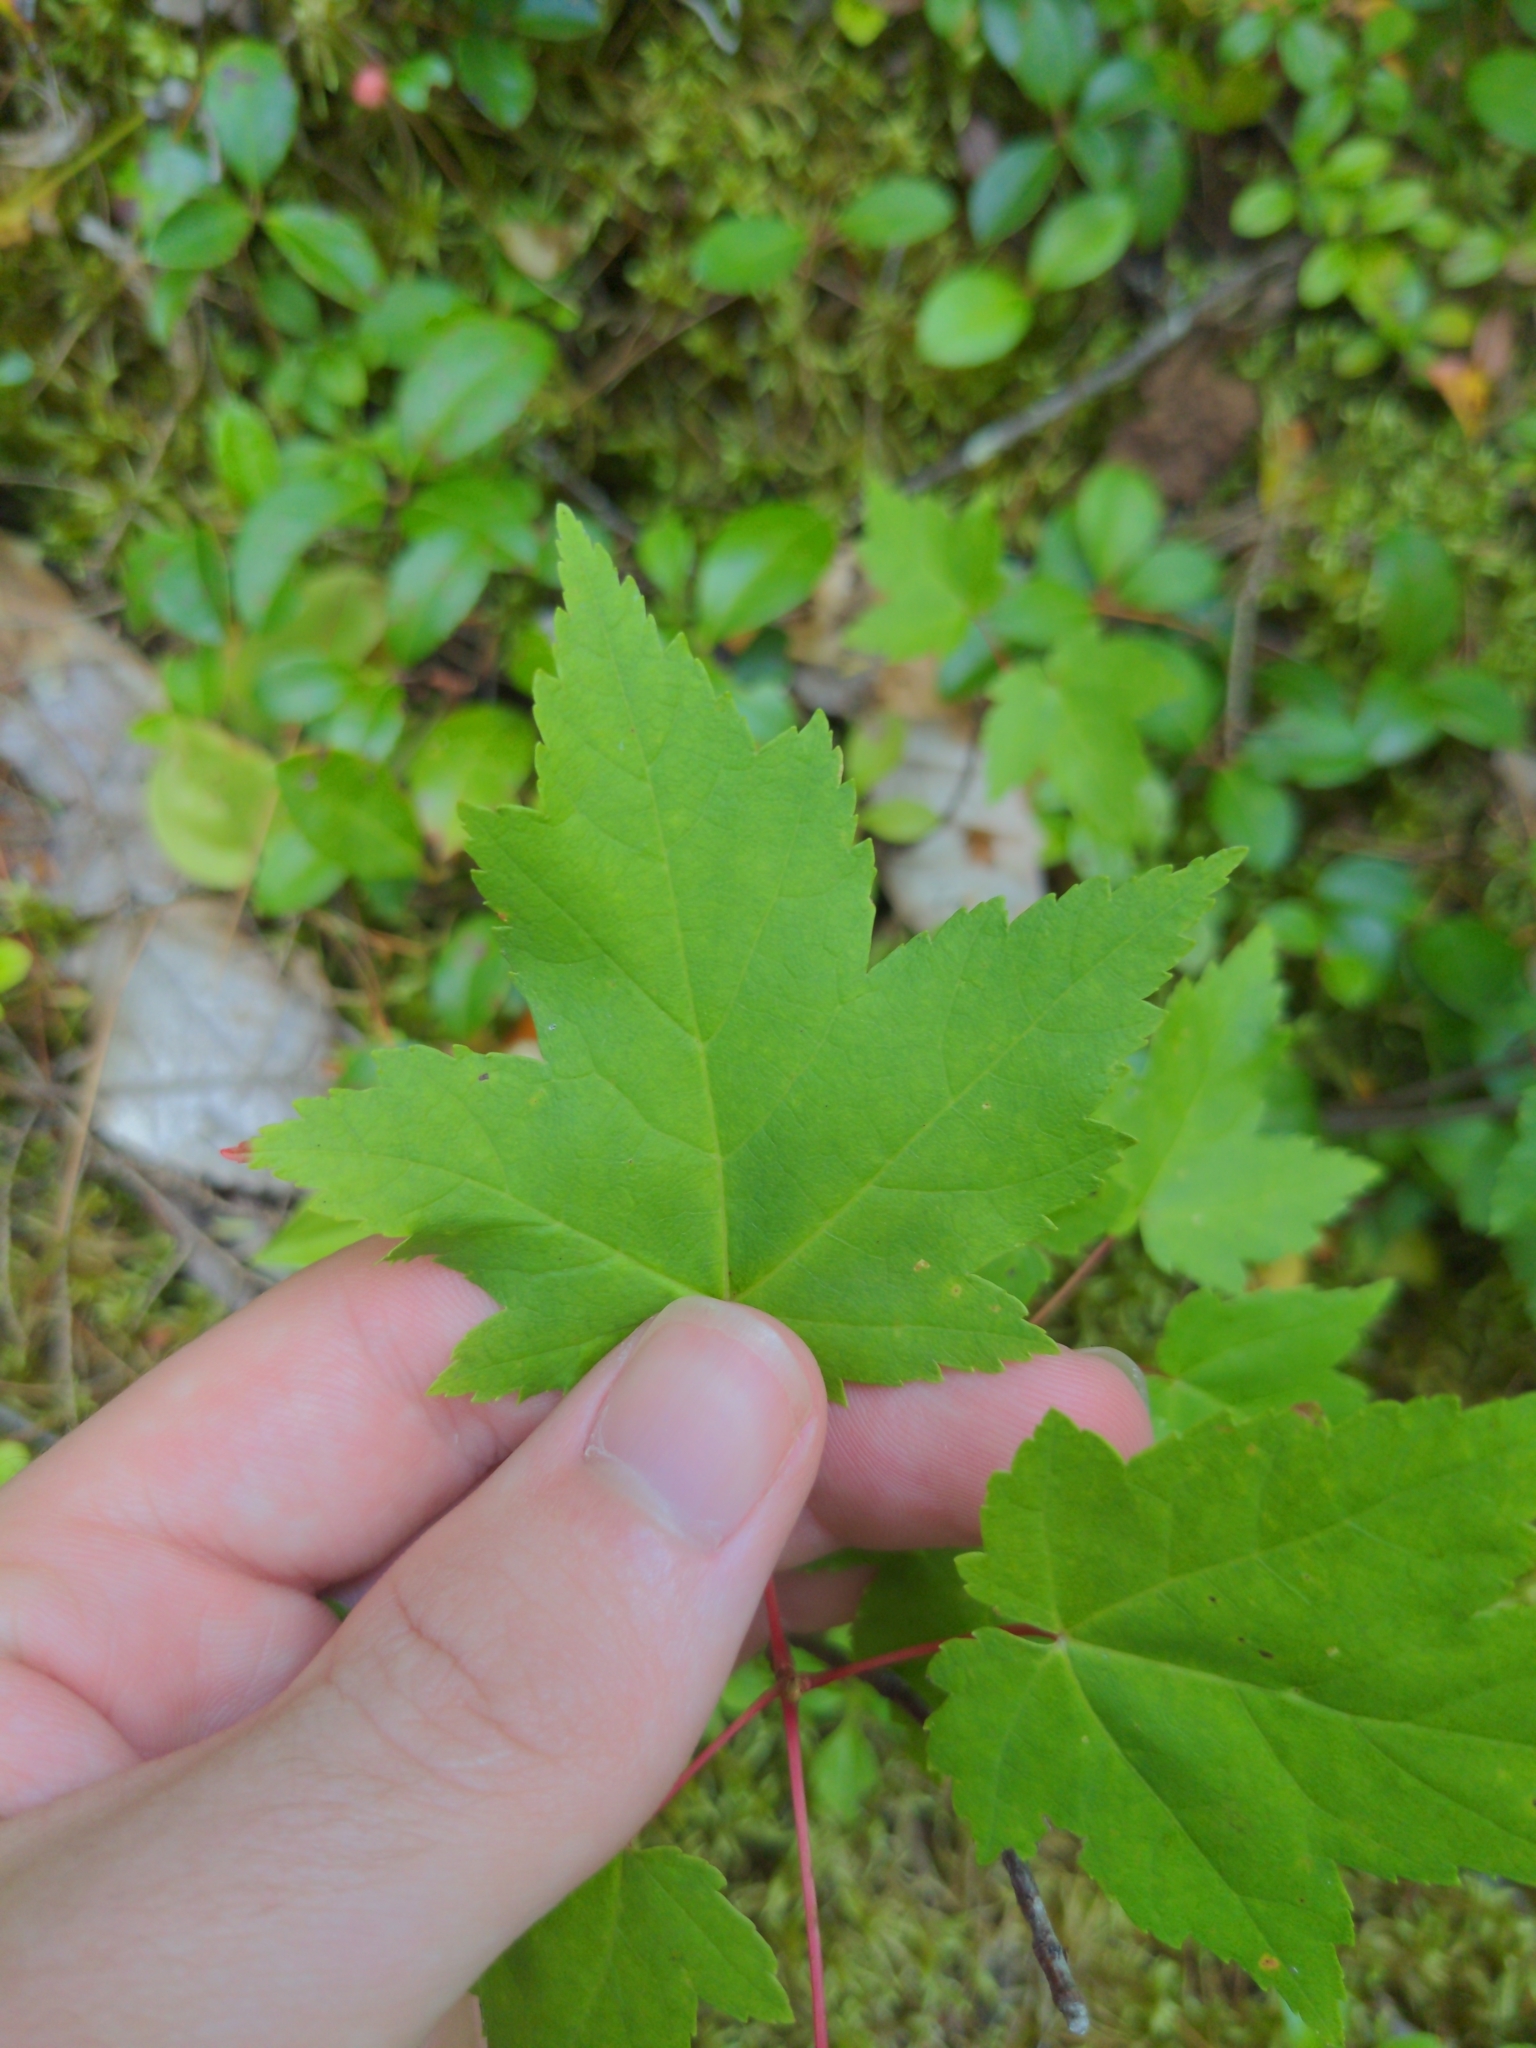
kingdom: Plantae
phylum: Tracheophyta
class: Magnoliopsida
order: Sapindales
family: Sapindaceae
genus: Acer
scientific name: Acer rubrum
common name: Red maple
